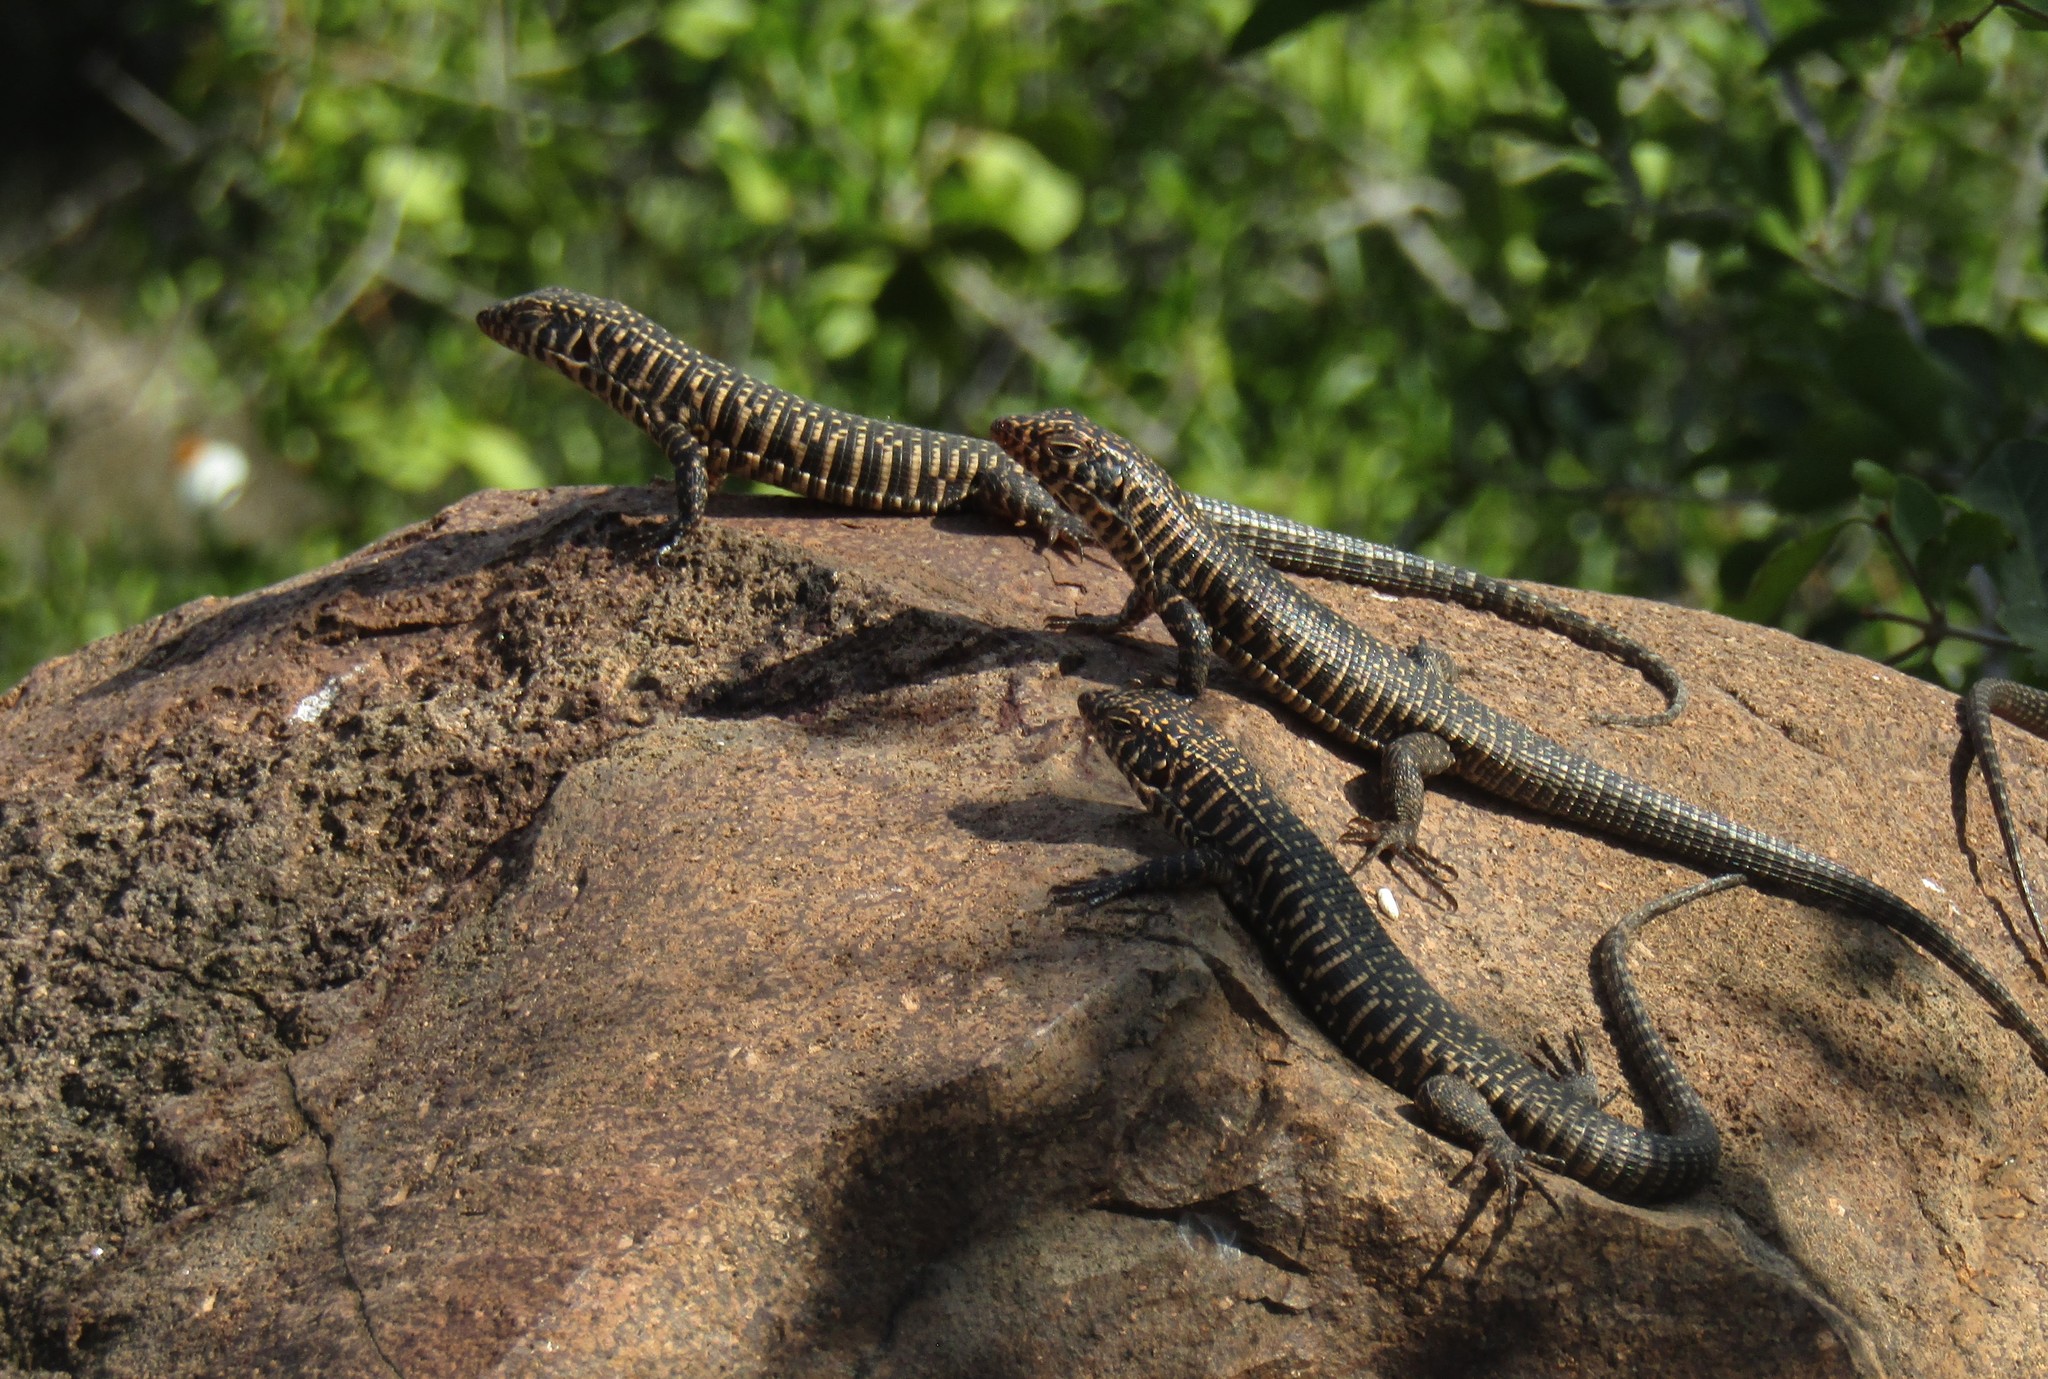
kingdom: Animalia
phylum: Chordata
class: Squamata
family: Gerrhosauridae
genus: Matobosaurus
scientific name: Matobosaurus validus
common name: Common giant plated lizard
